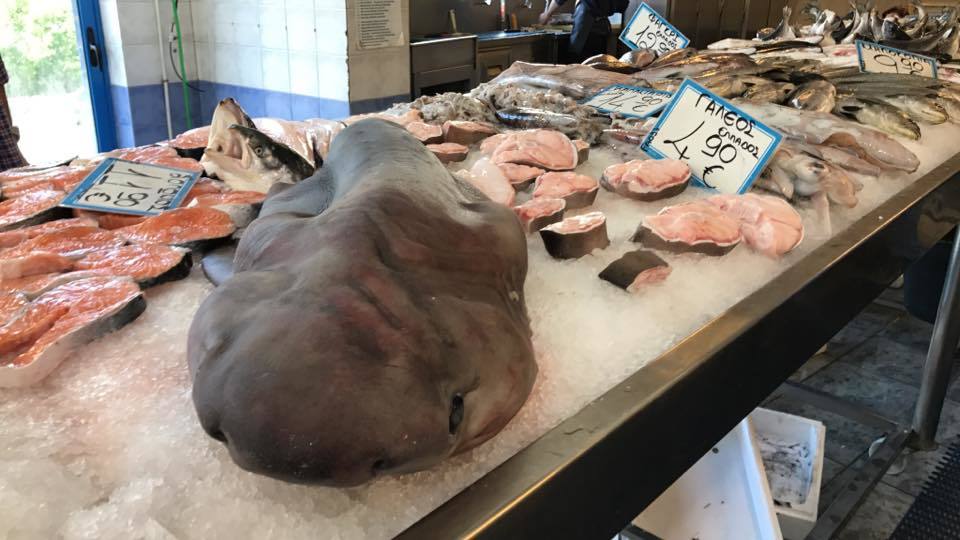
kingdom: Animalia
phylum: Chordata
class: Elasmobranchii
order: Hexanchiformes
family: Hexanchidae
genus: Hexanchus
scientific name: Hexanchus griseus
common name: Bluntnose sixgill shark
